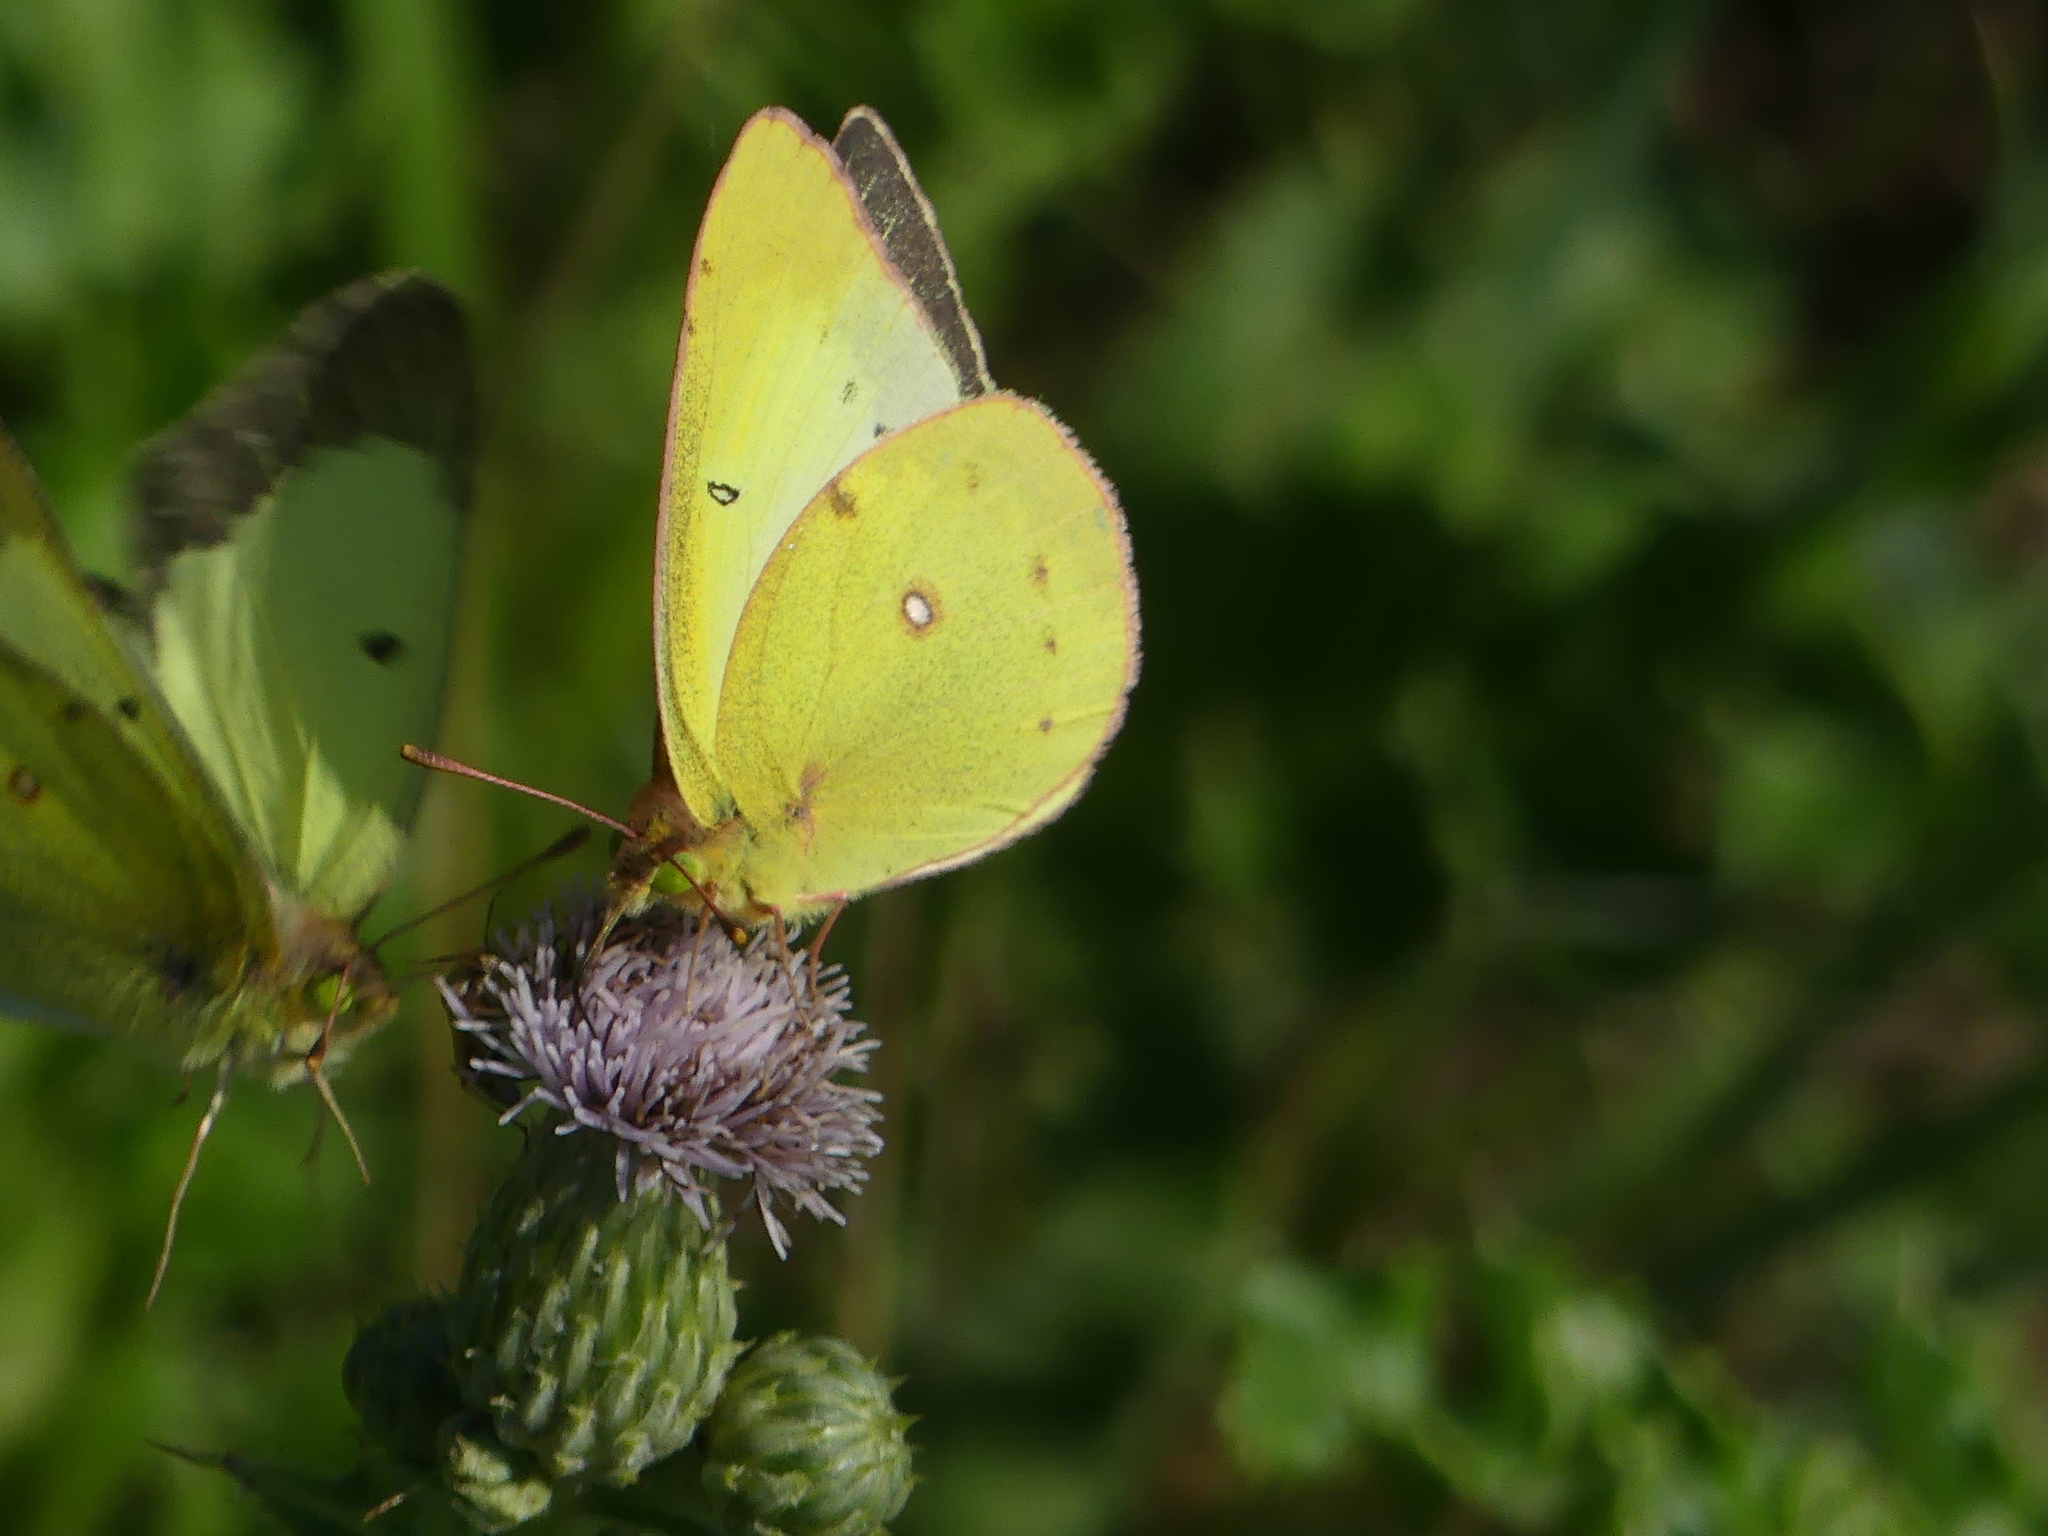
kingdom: Animalia
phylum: Arthropoda
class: Insecta
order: Lepidoptera
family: Pieridae
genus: Colias
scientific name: Colias philodice
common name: Clouded sulphur
